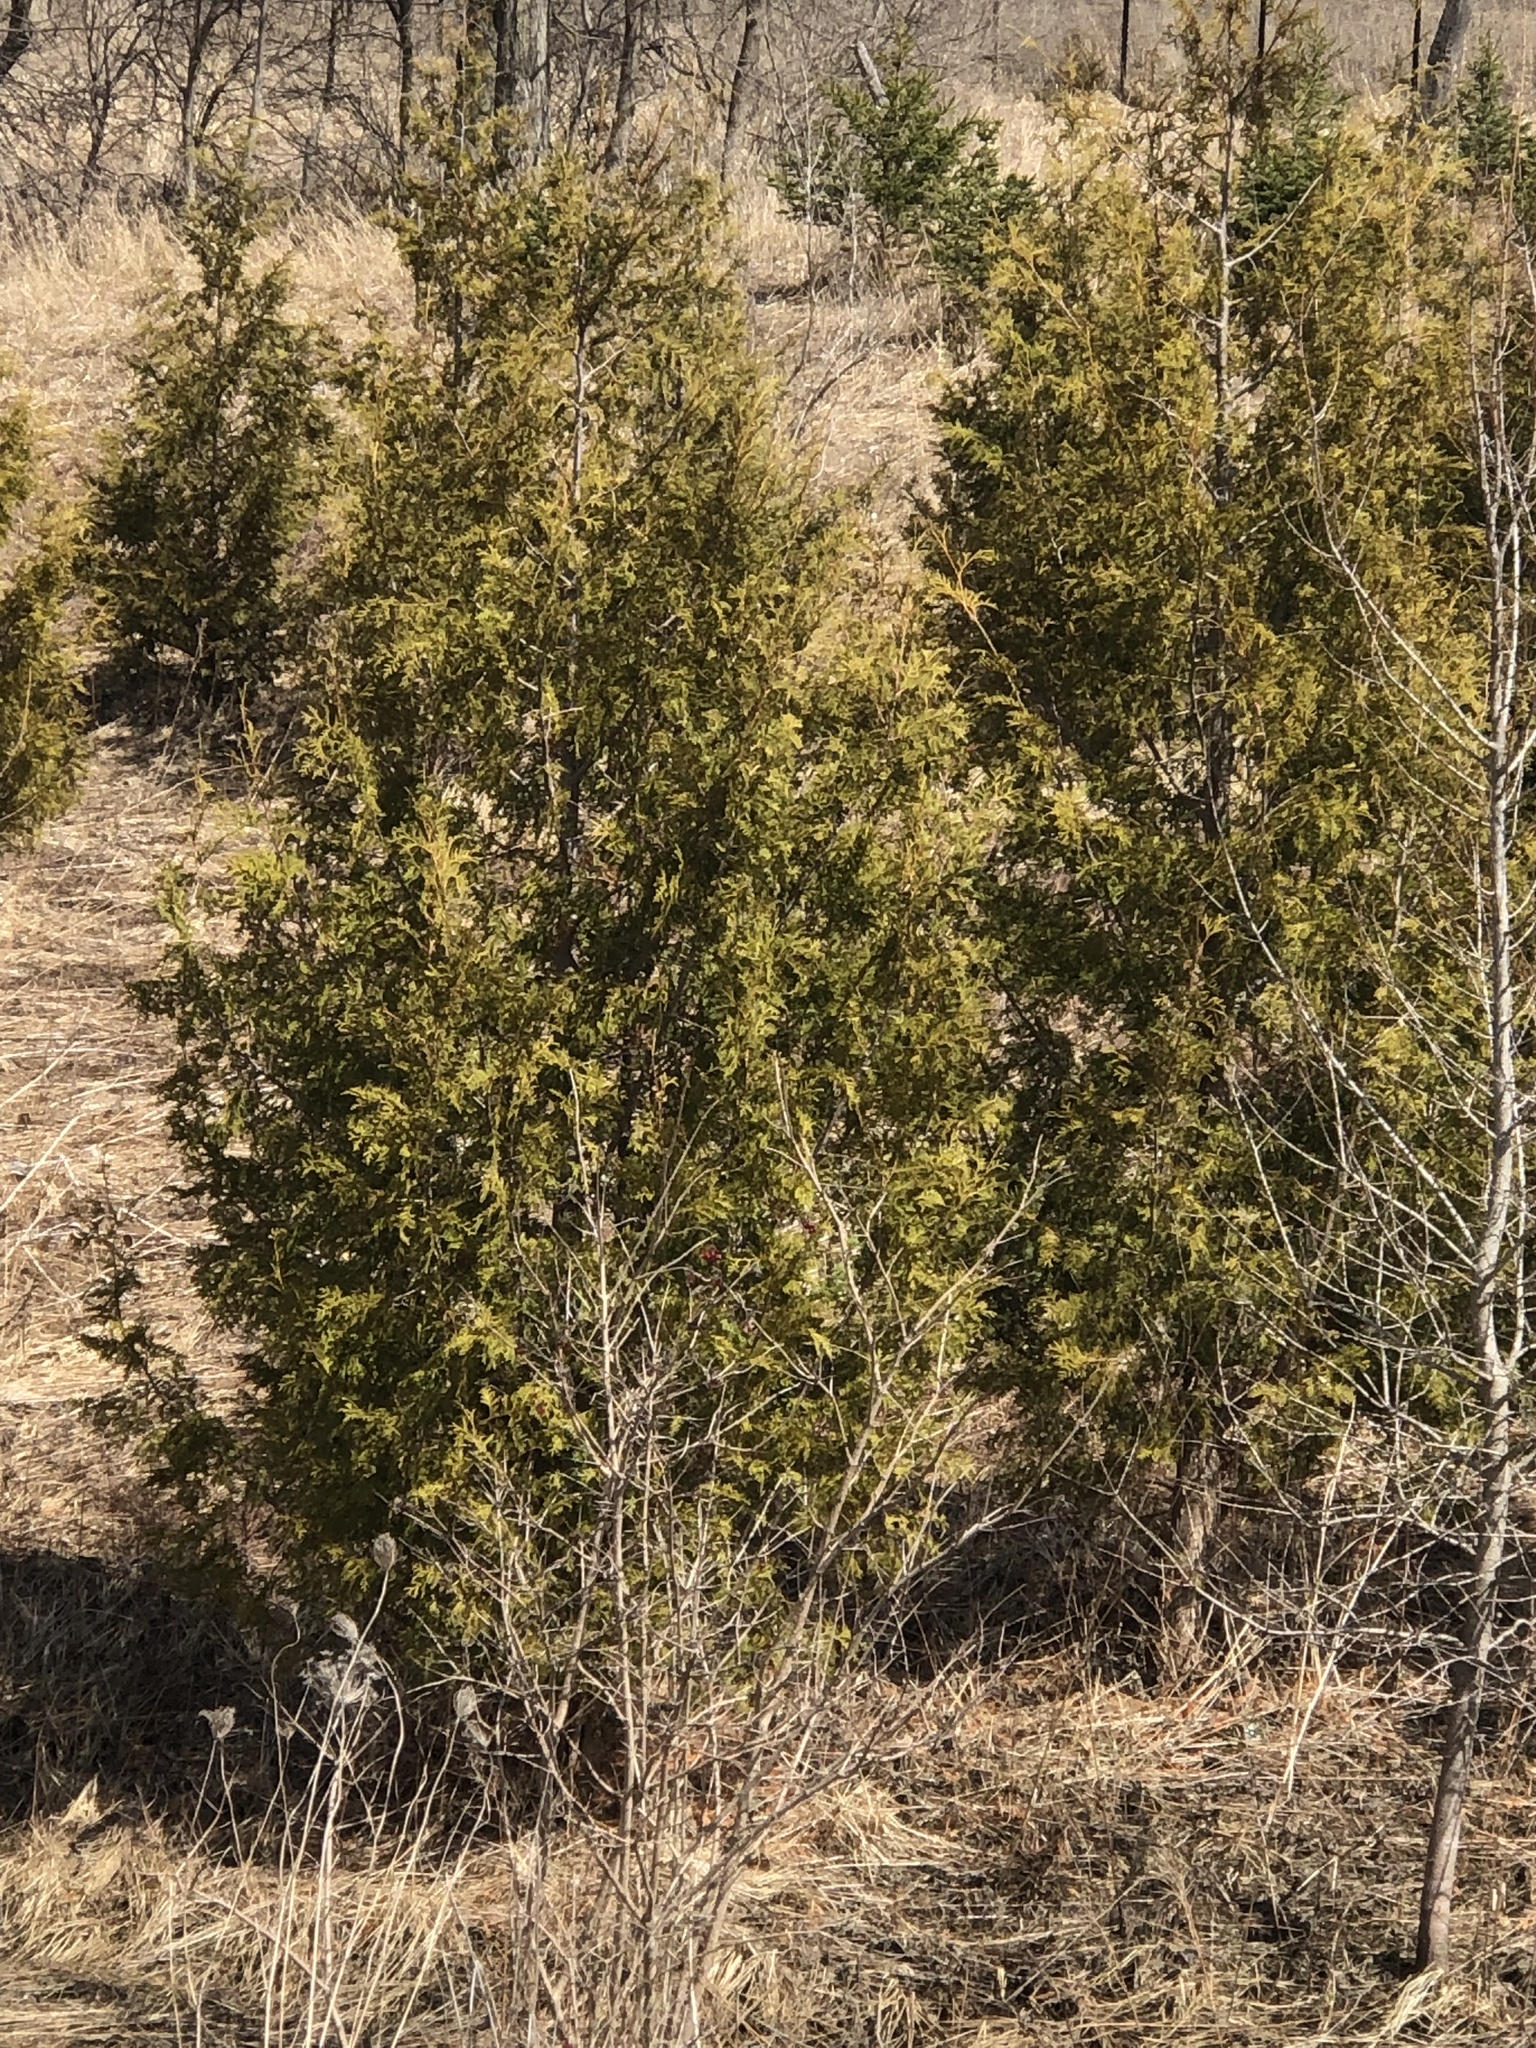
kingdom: Plantae
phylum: Tracheophyta
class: Pinopsida
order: Pinales
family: Cupressaceae
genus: Thuja
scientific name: Thuja occidentalis
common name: Northern white-cedar
